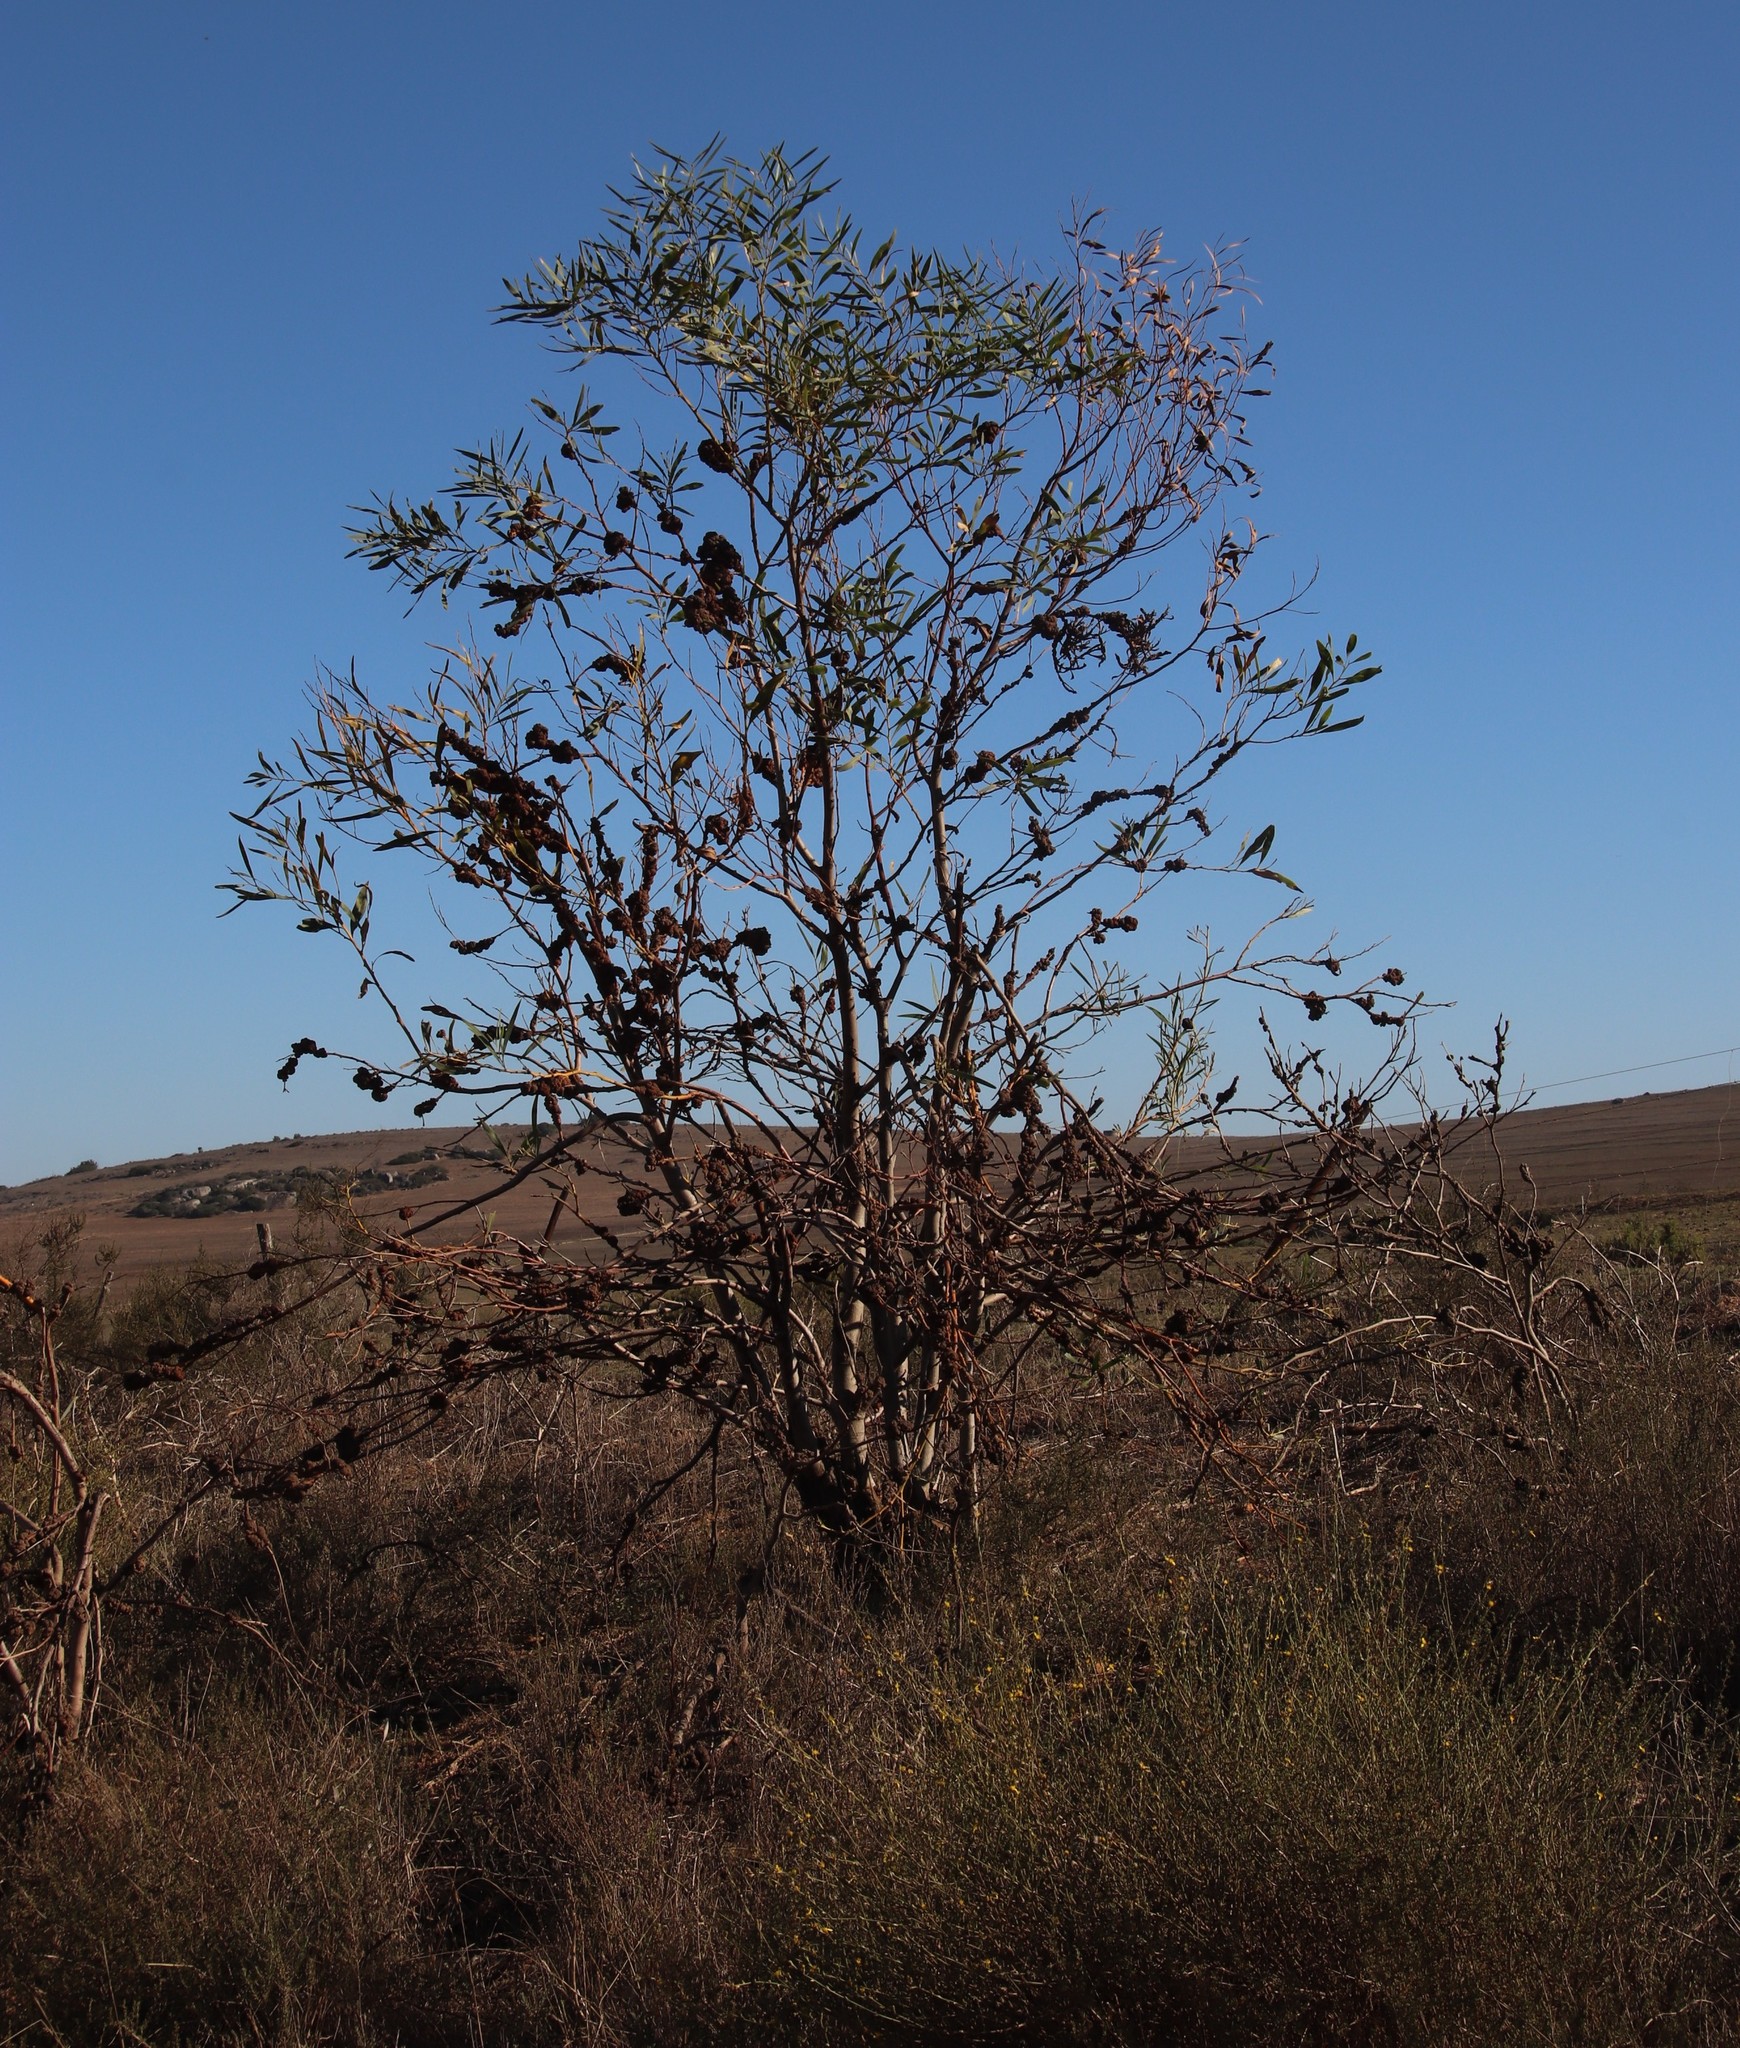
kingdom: Plantae
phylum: Tracheophyta
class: Magnoliopsida
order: Fabales
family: Fabaceae
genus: Acacia
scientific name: Acacia saligna
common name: Orange wattle
